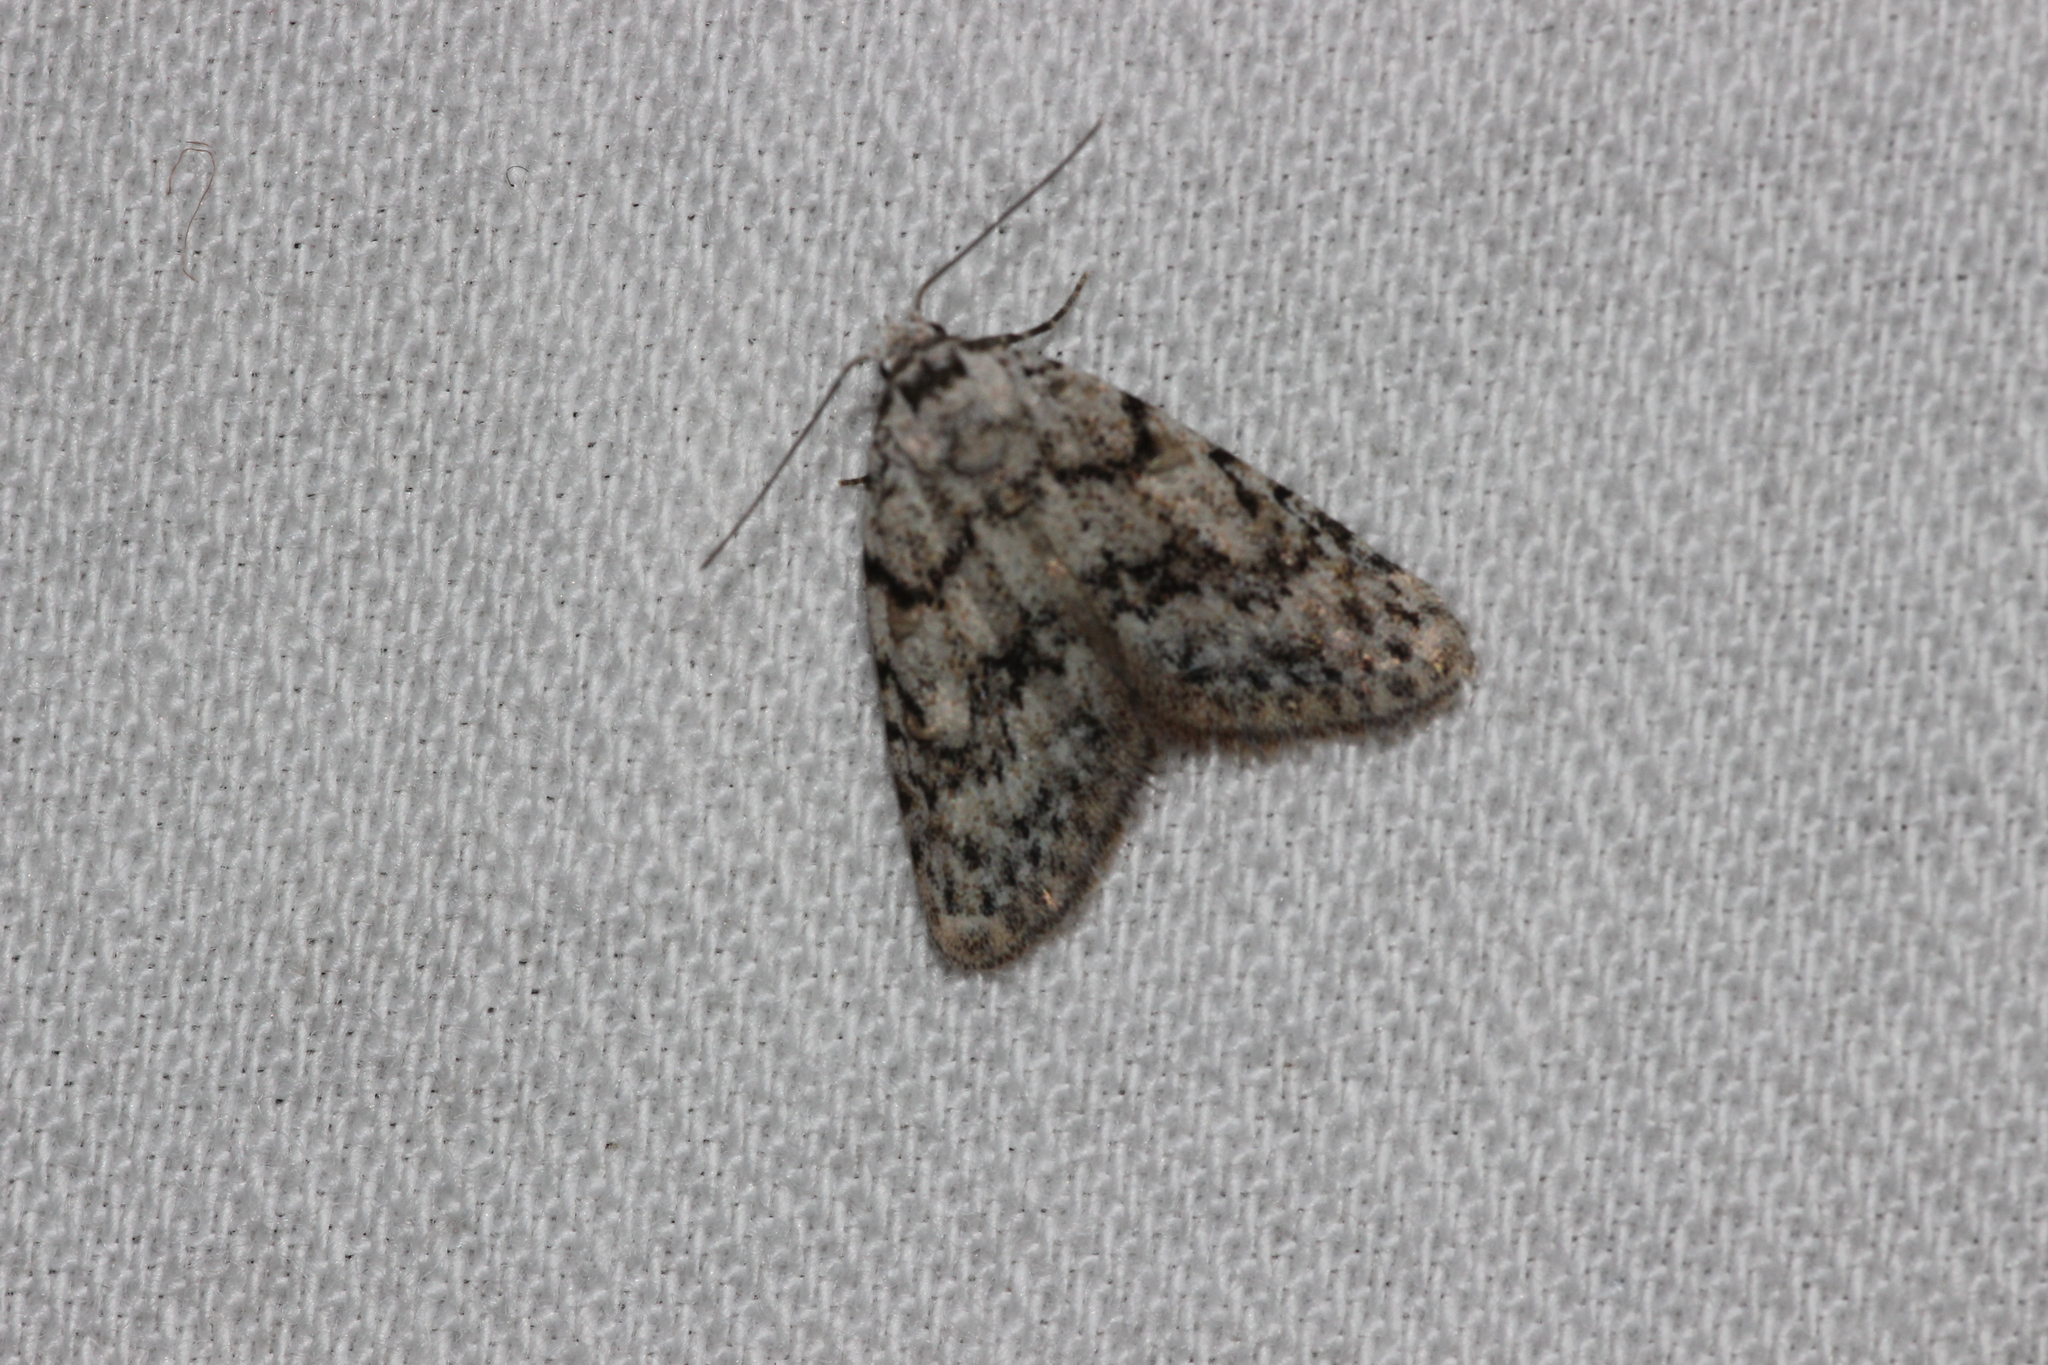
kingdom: Animalia
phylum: Arthropoda
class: Insecta
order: Lepidoptera
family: Nolidae
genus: Nola
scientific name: Nola cicatricalis
